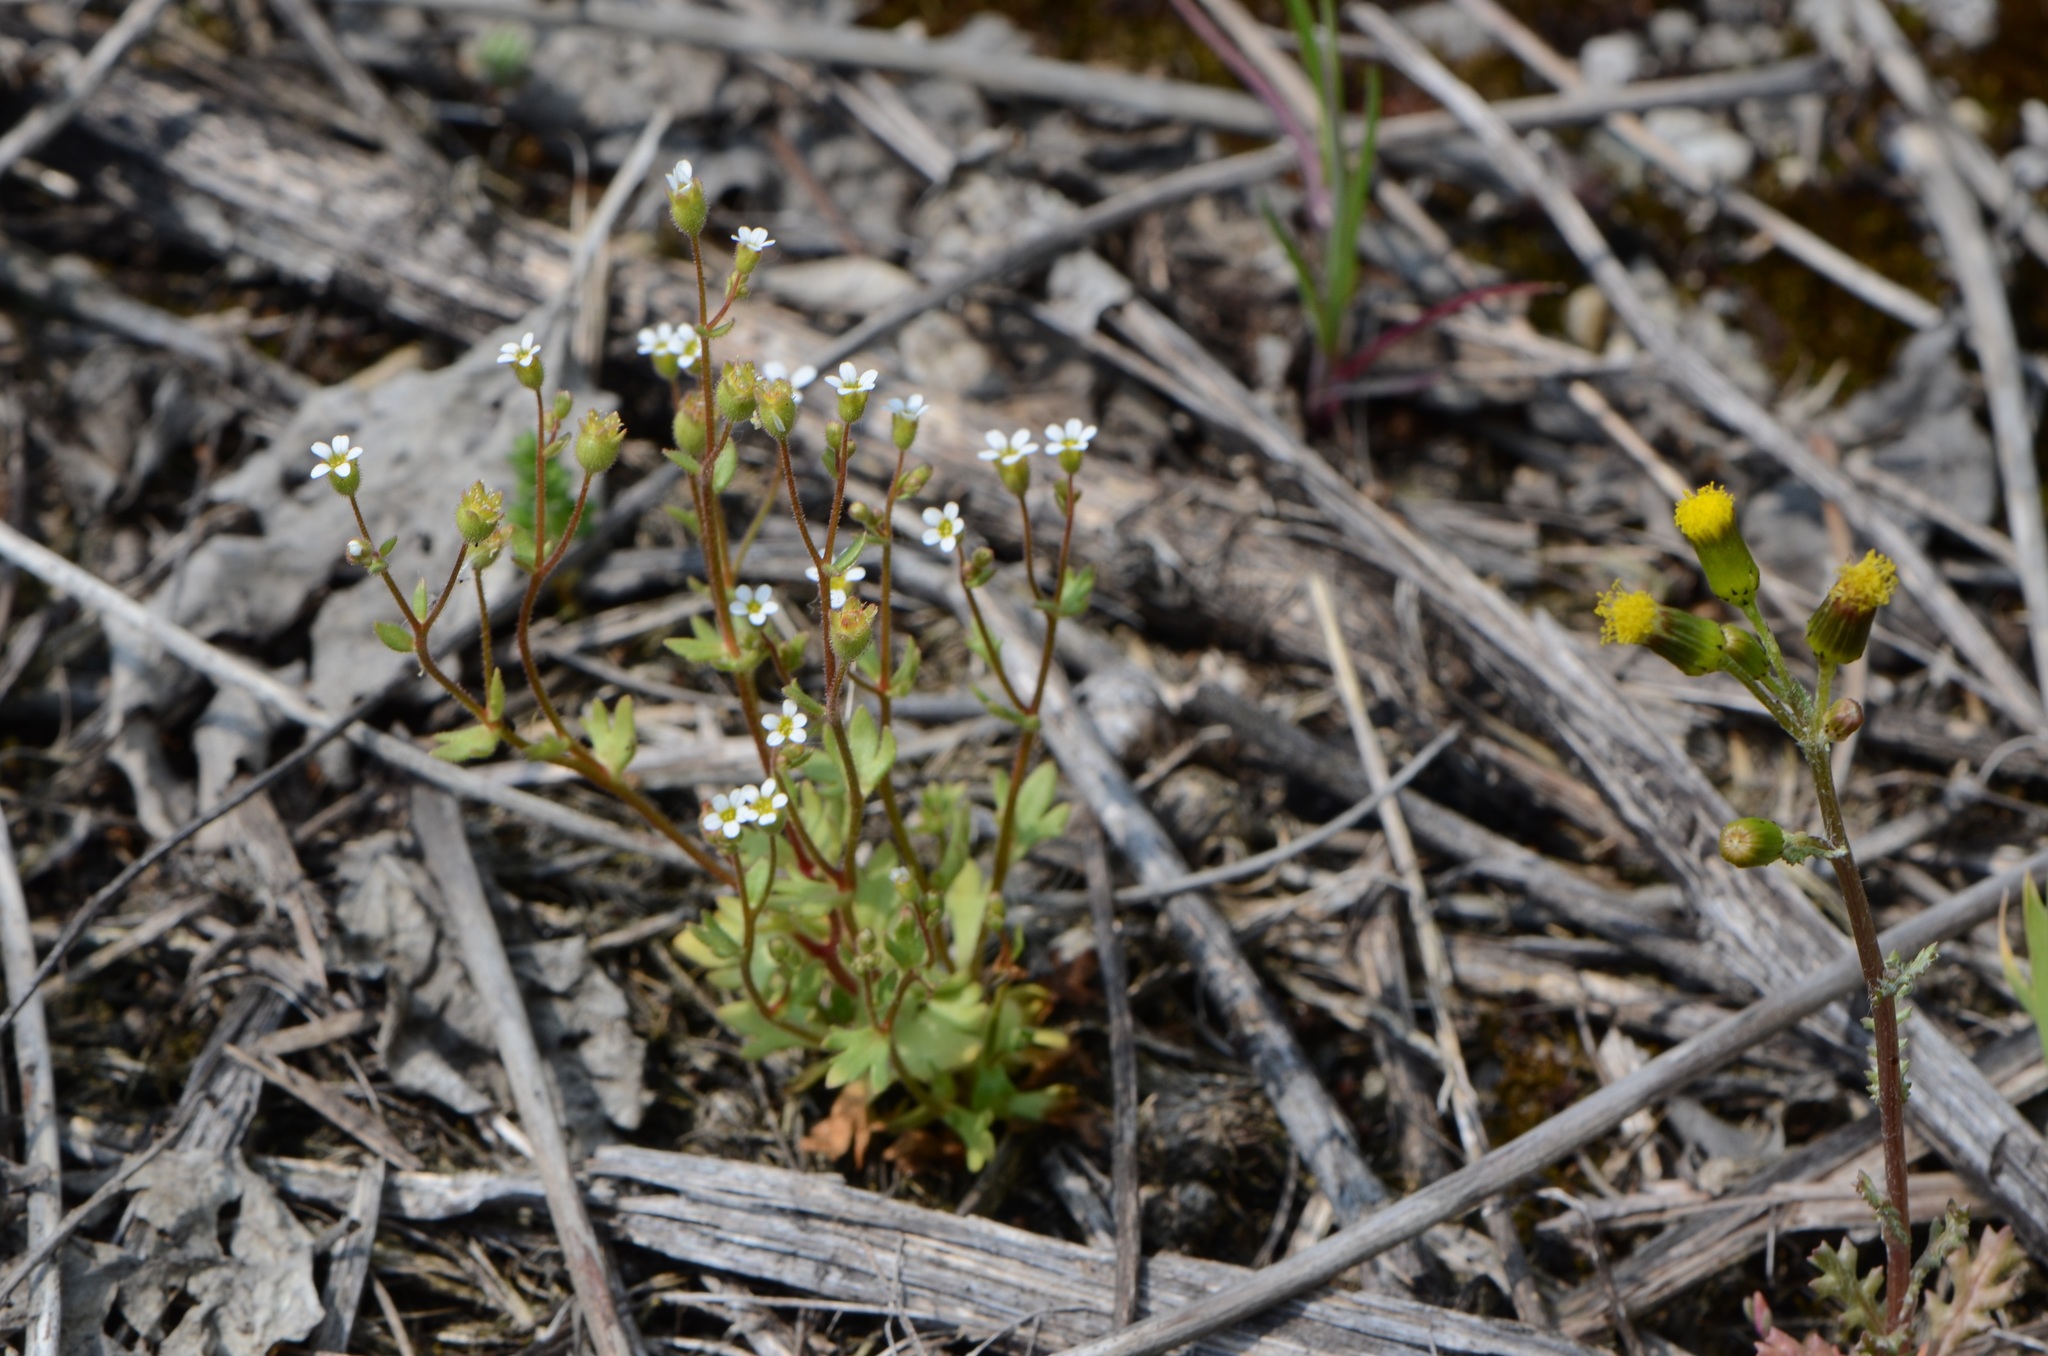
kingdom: Plantae
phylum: Tracheophyta
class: Magnoliopsida
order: Asterales
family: Asteraceae
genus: Senecio
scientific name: Senecio vulgaris
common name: Old-man-in-the-spring
